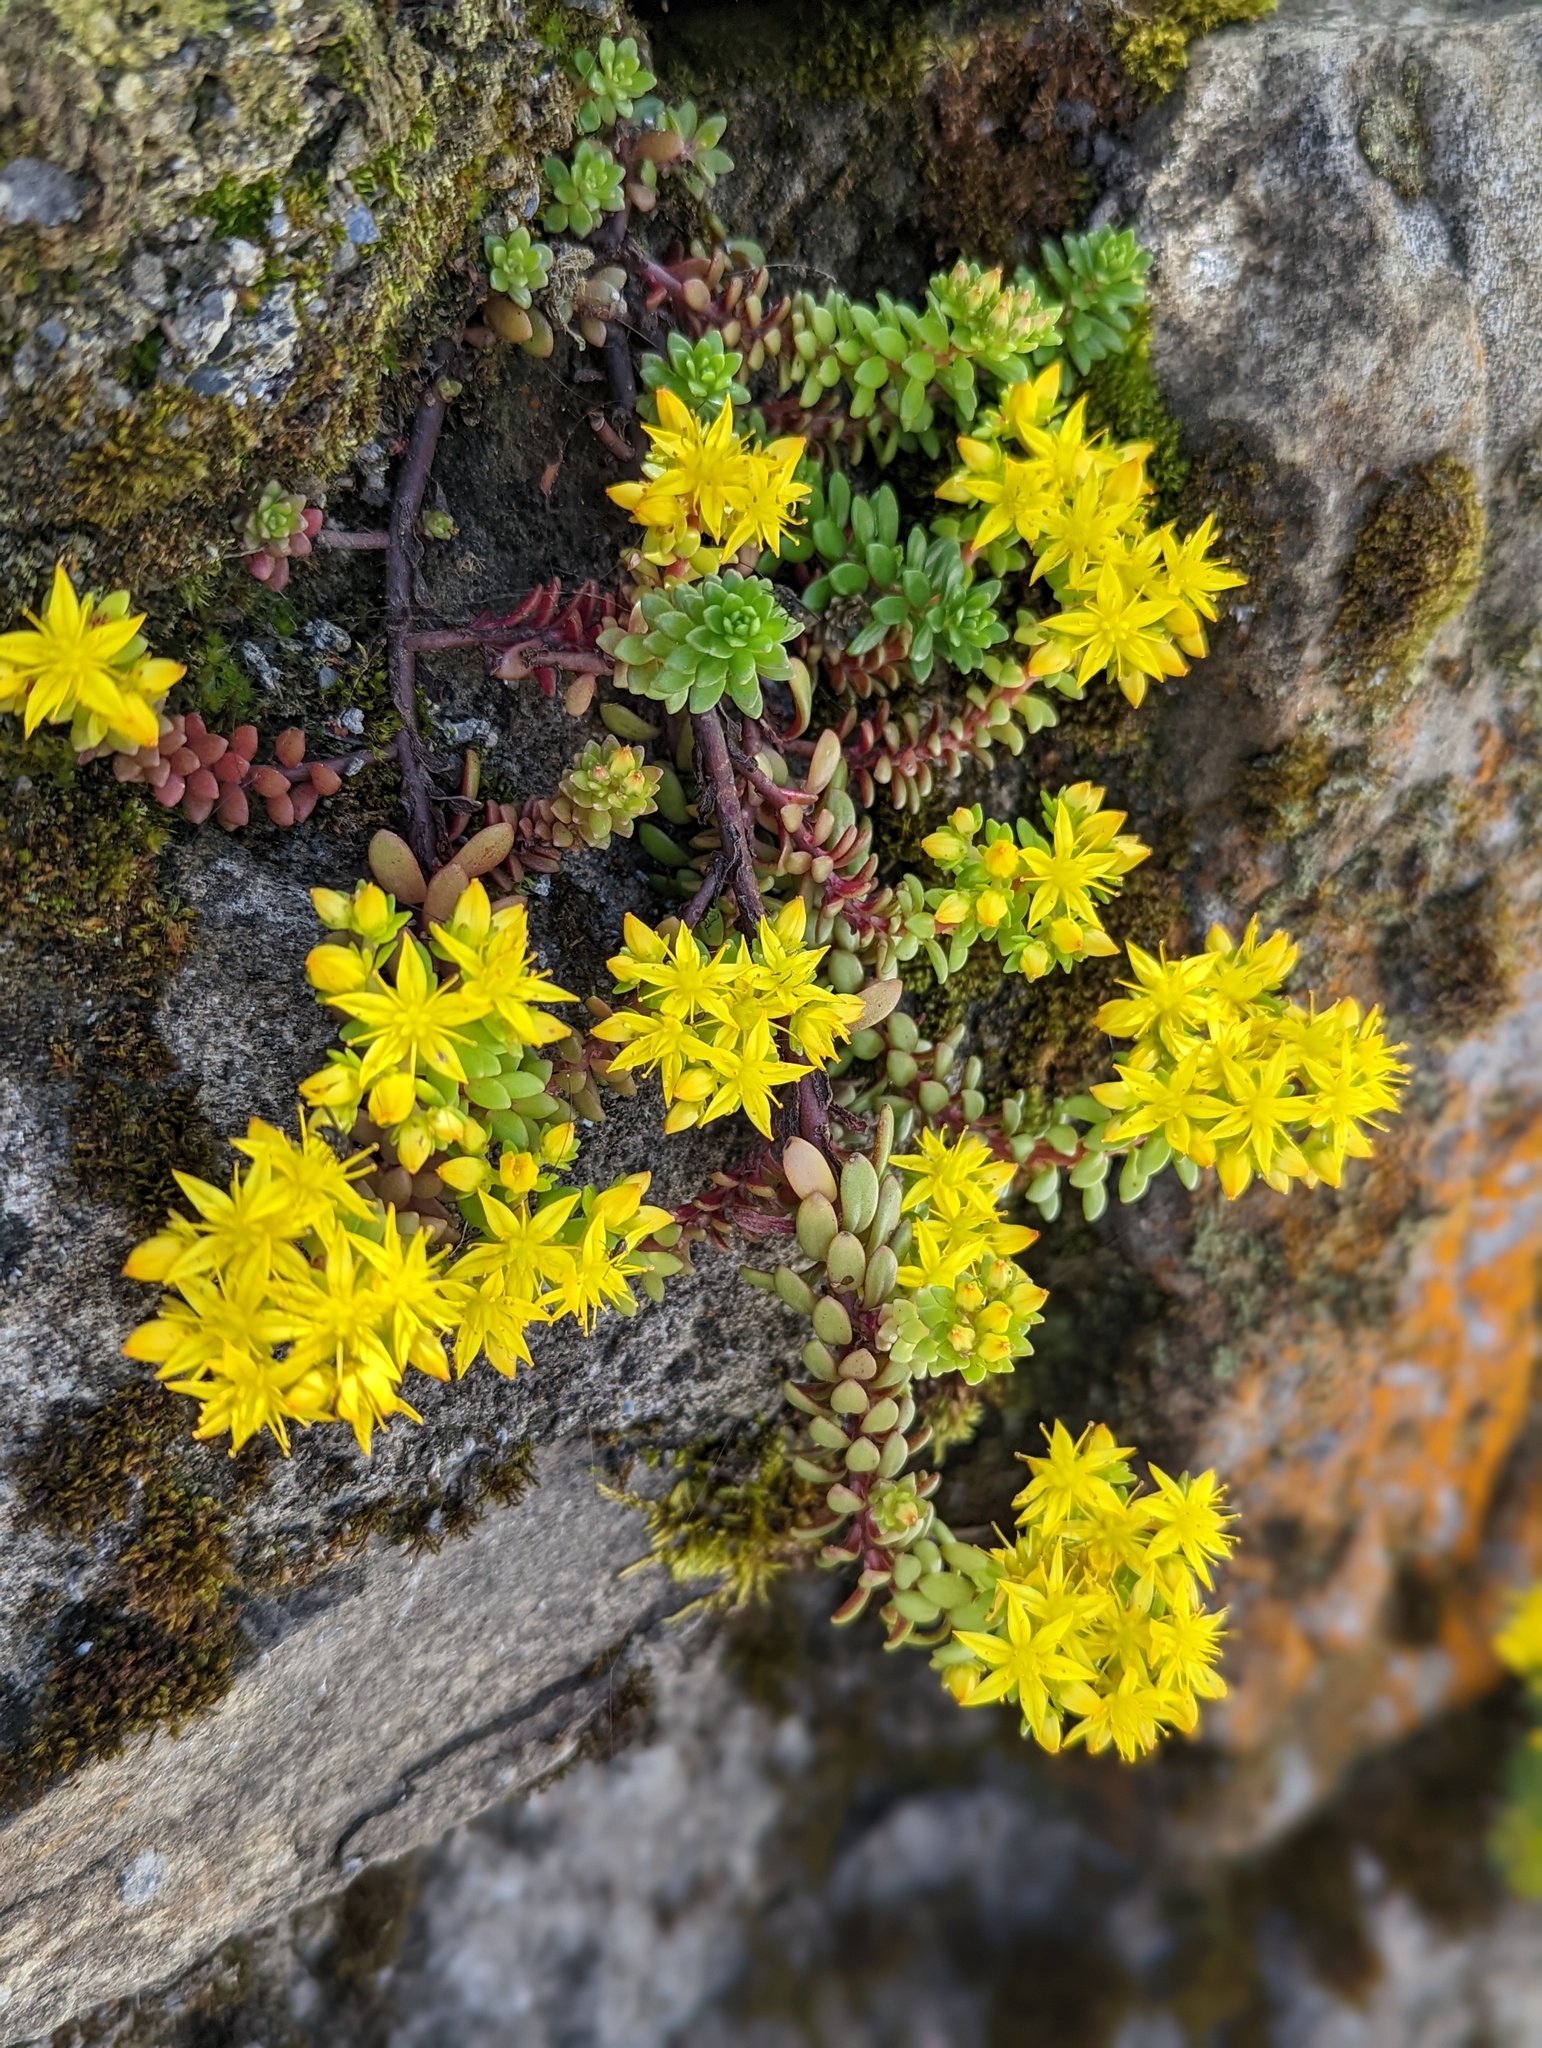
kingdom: Plantae
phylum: Tracheophyta
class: Magnoliopsida
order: Saxifragales
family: Crassulaceae
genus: Sedum
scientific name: Sedum morrisonense
